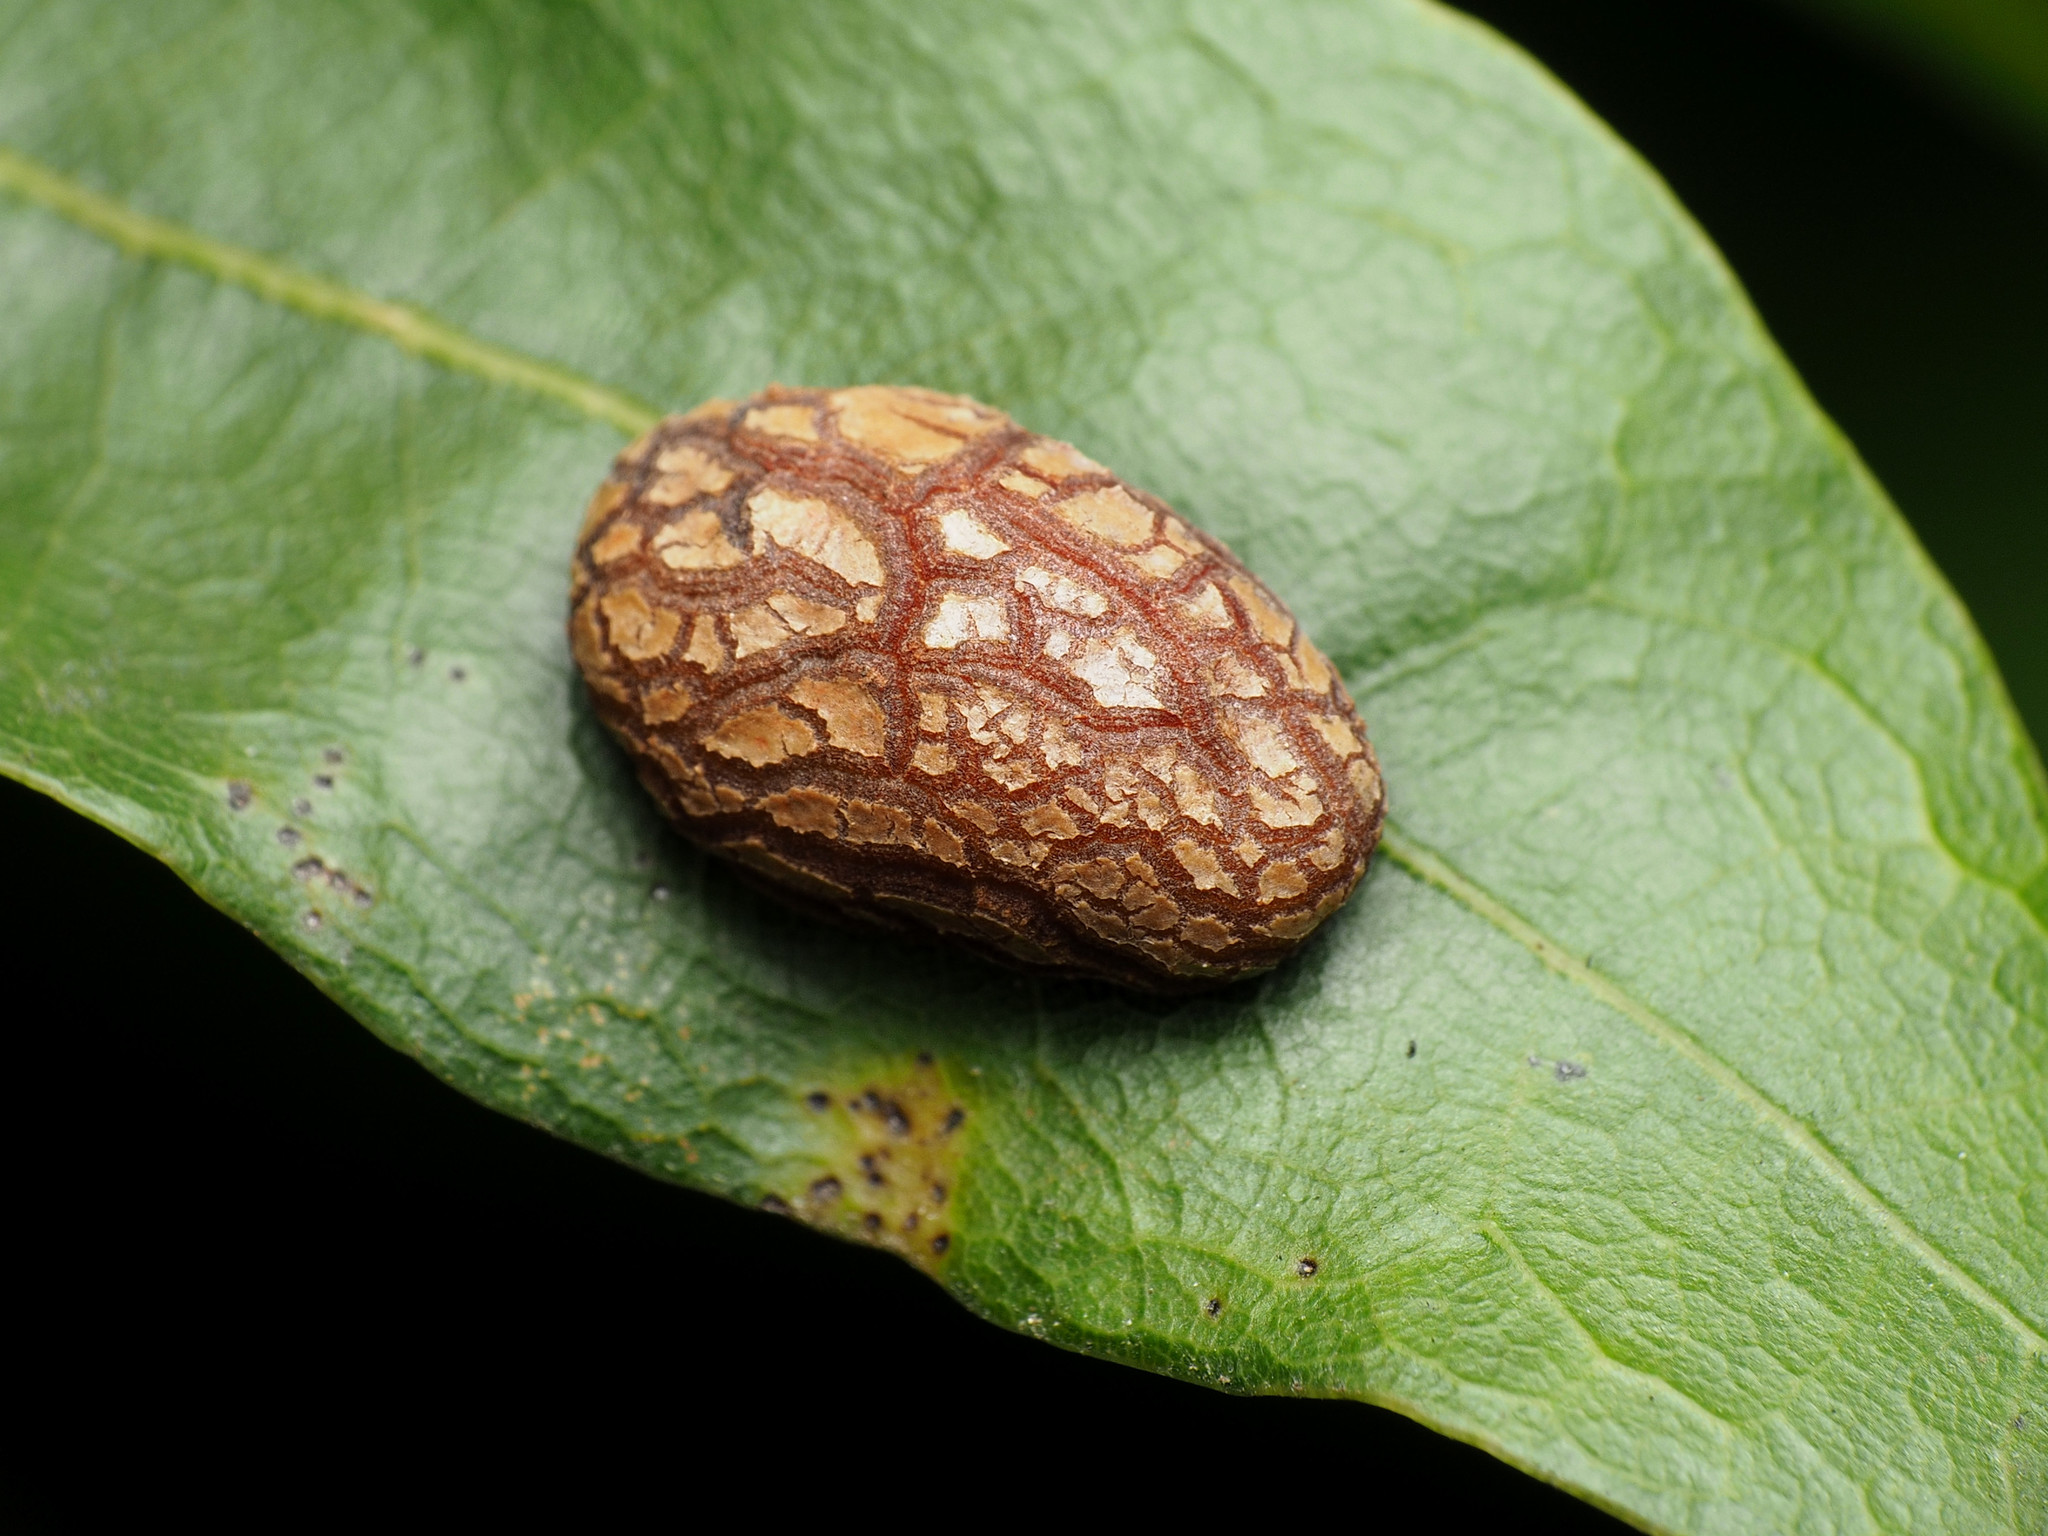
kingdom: Animalia
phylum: Arthropoda
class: Insecta
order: Diptera
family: Cecidomyiidae
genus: Polystepha
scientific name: Polystepha pilulae
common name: Oak leaf gall midge
